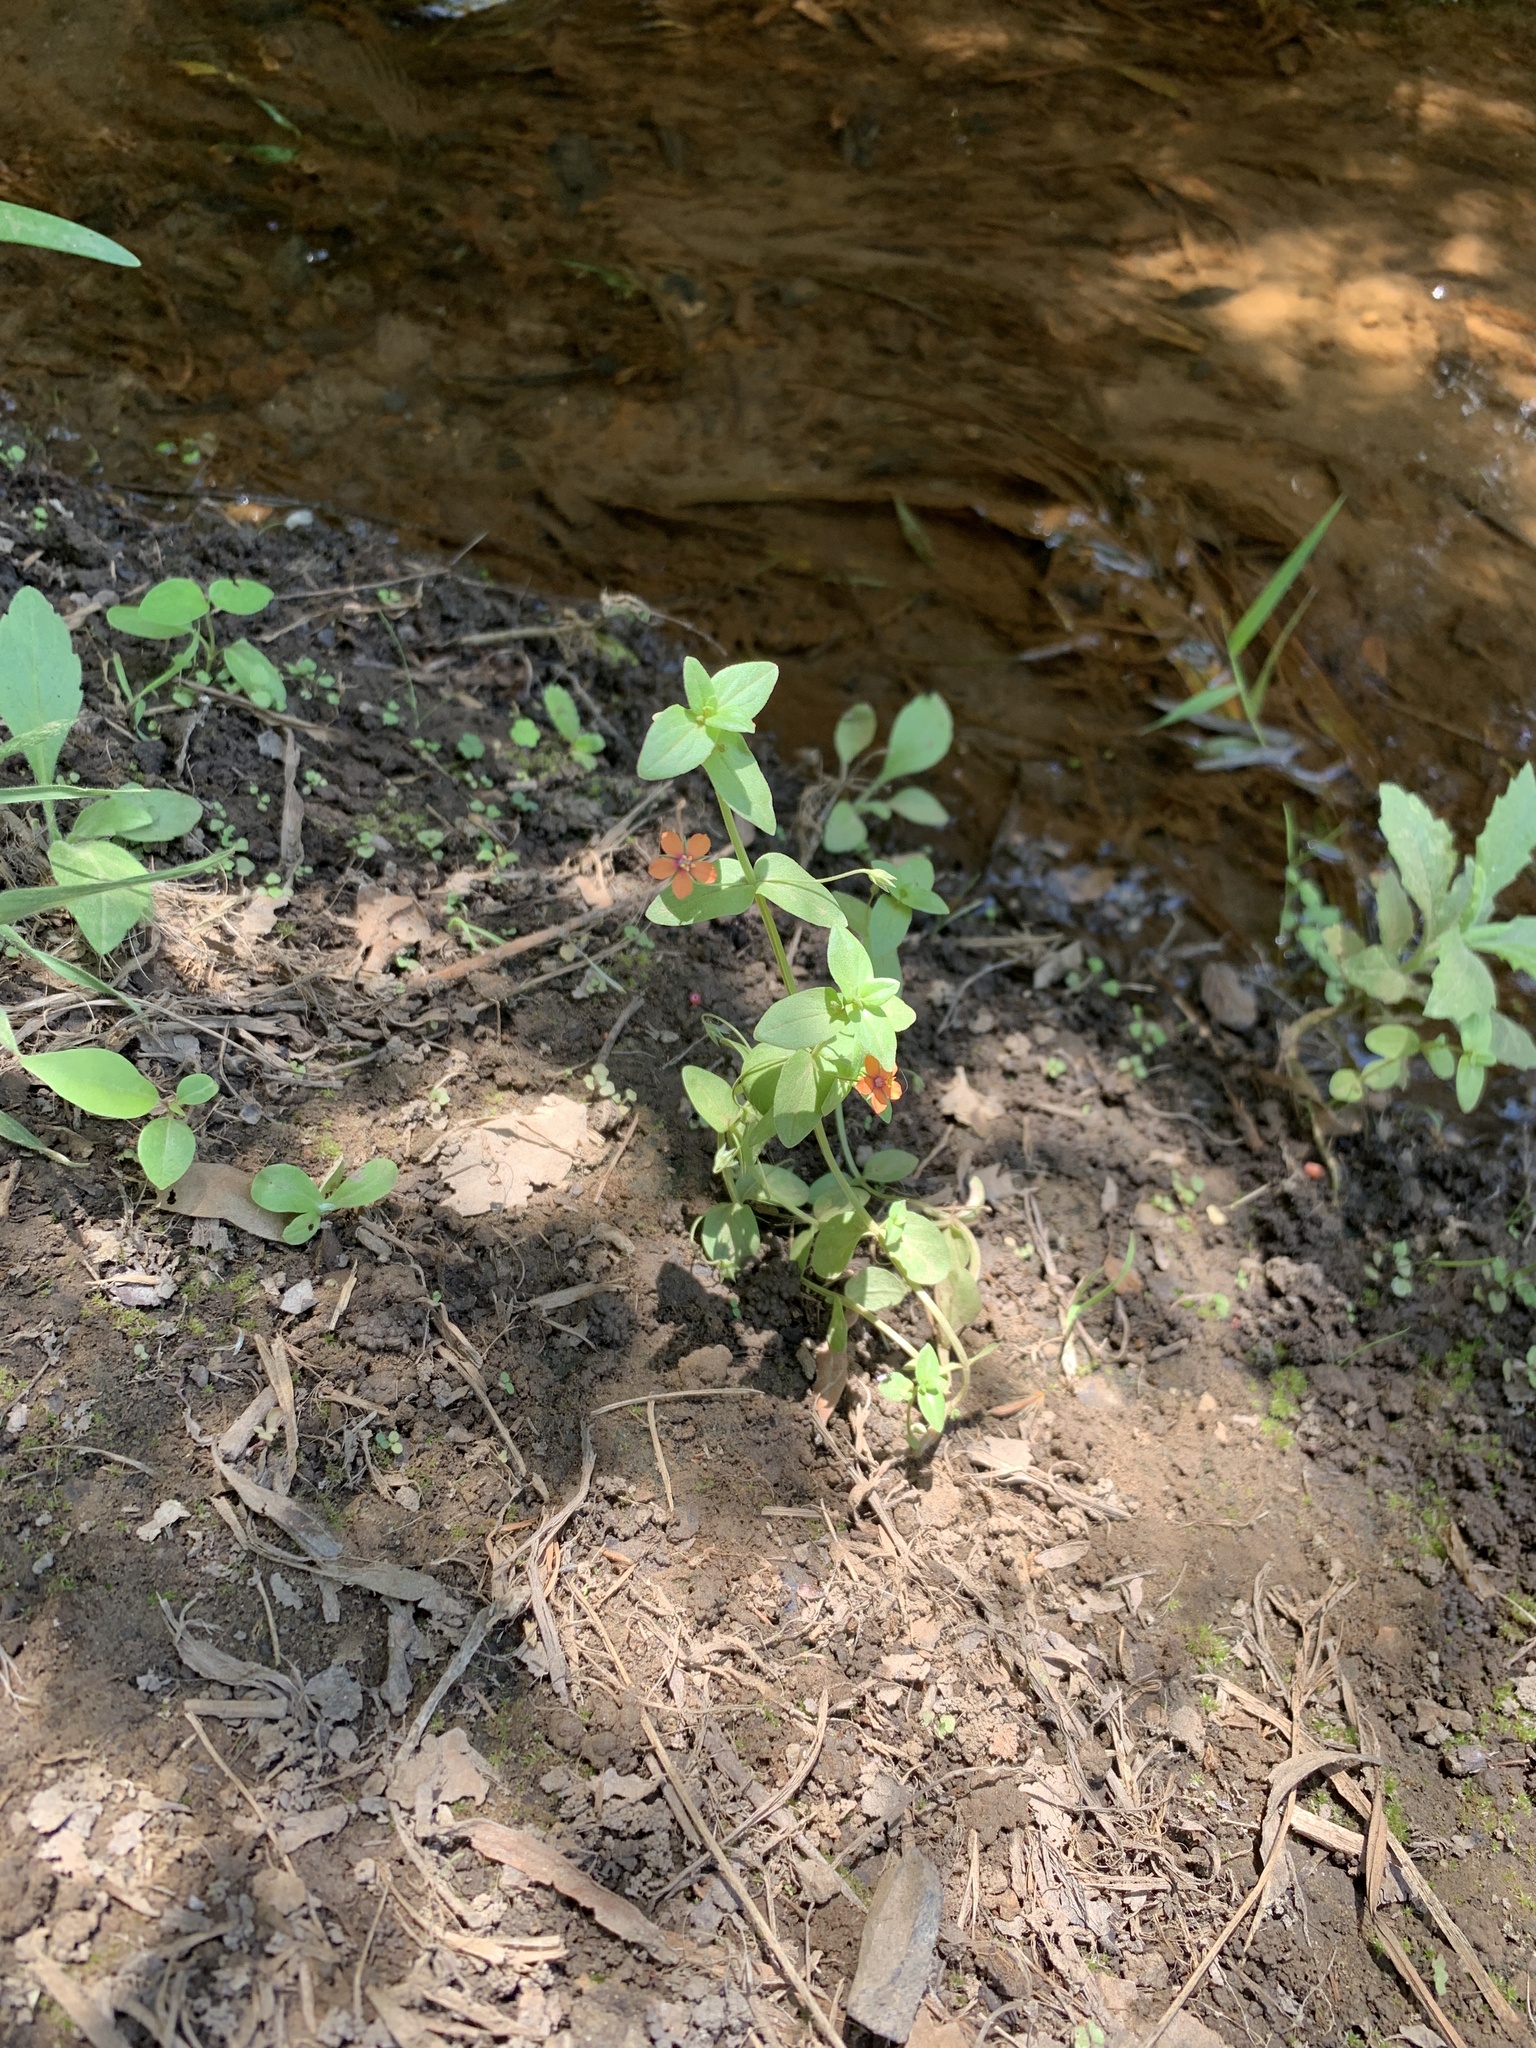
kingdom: Plantae
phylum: Tracheophyta
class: Magnoliopsida
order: Ericales
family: Primulaceae
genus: Lysimachia
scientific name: Lysimachia arvensis
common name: Scarlet pimpernel
